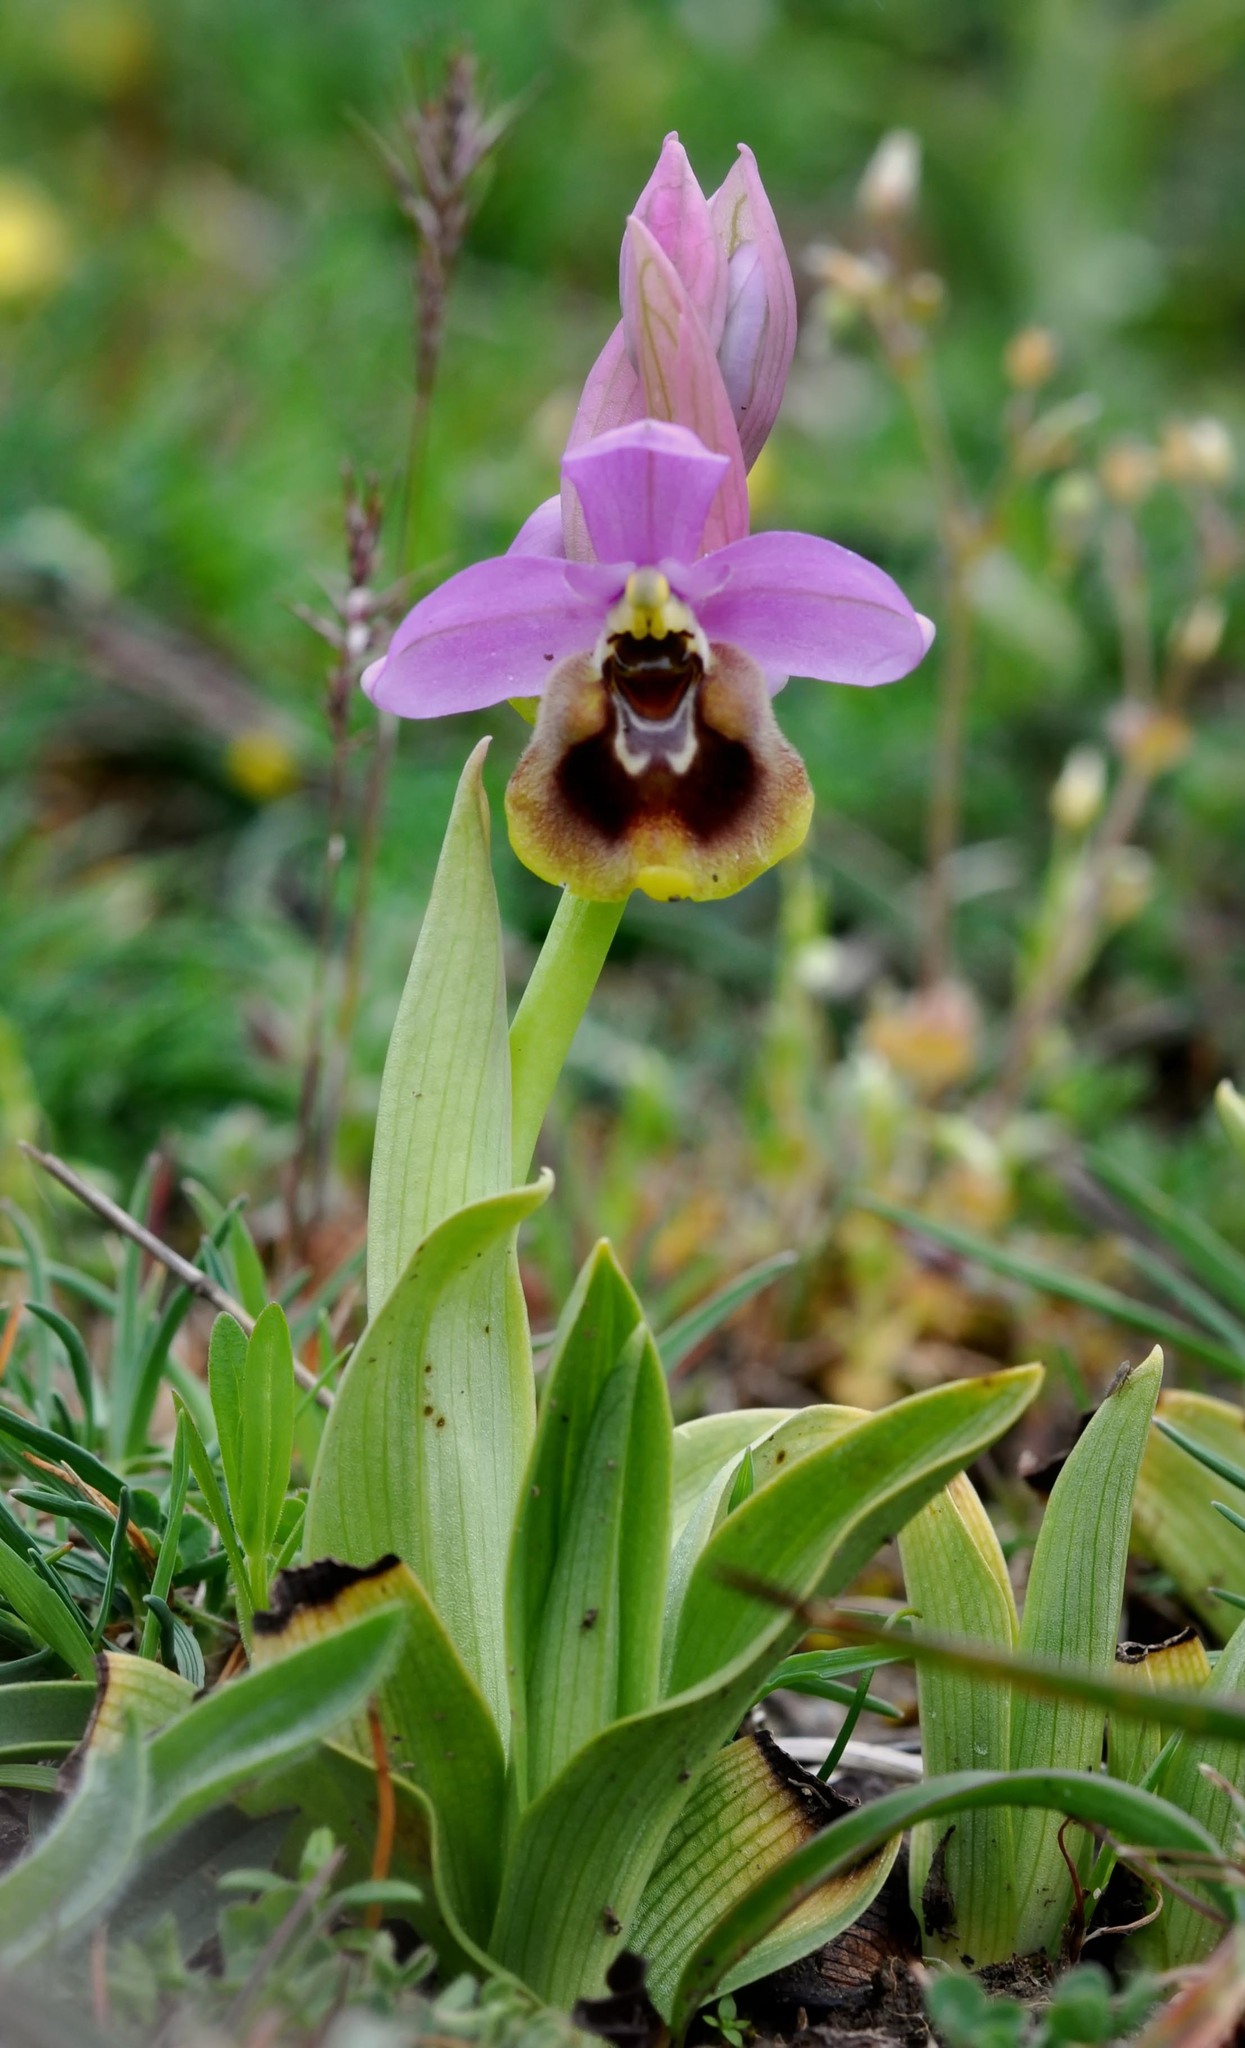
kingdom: Plantae
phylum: Tracheophyta
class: Liliopsida
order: Asparagales
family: Orchidaceae
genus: Ophrys
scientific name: Ophrys tenthredinifera
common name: Sawfly orchid
